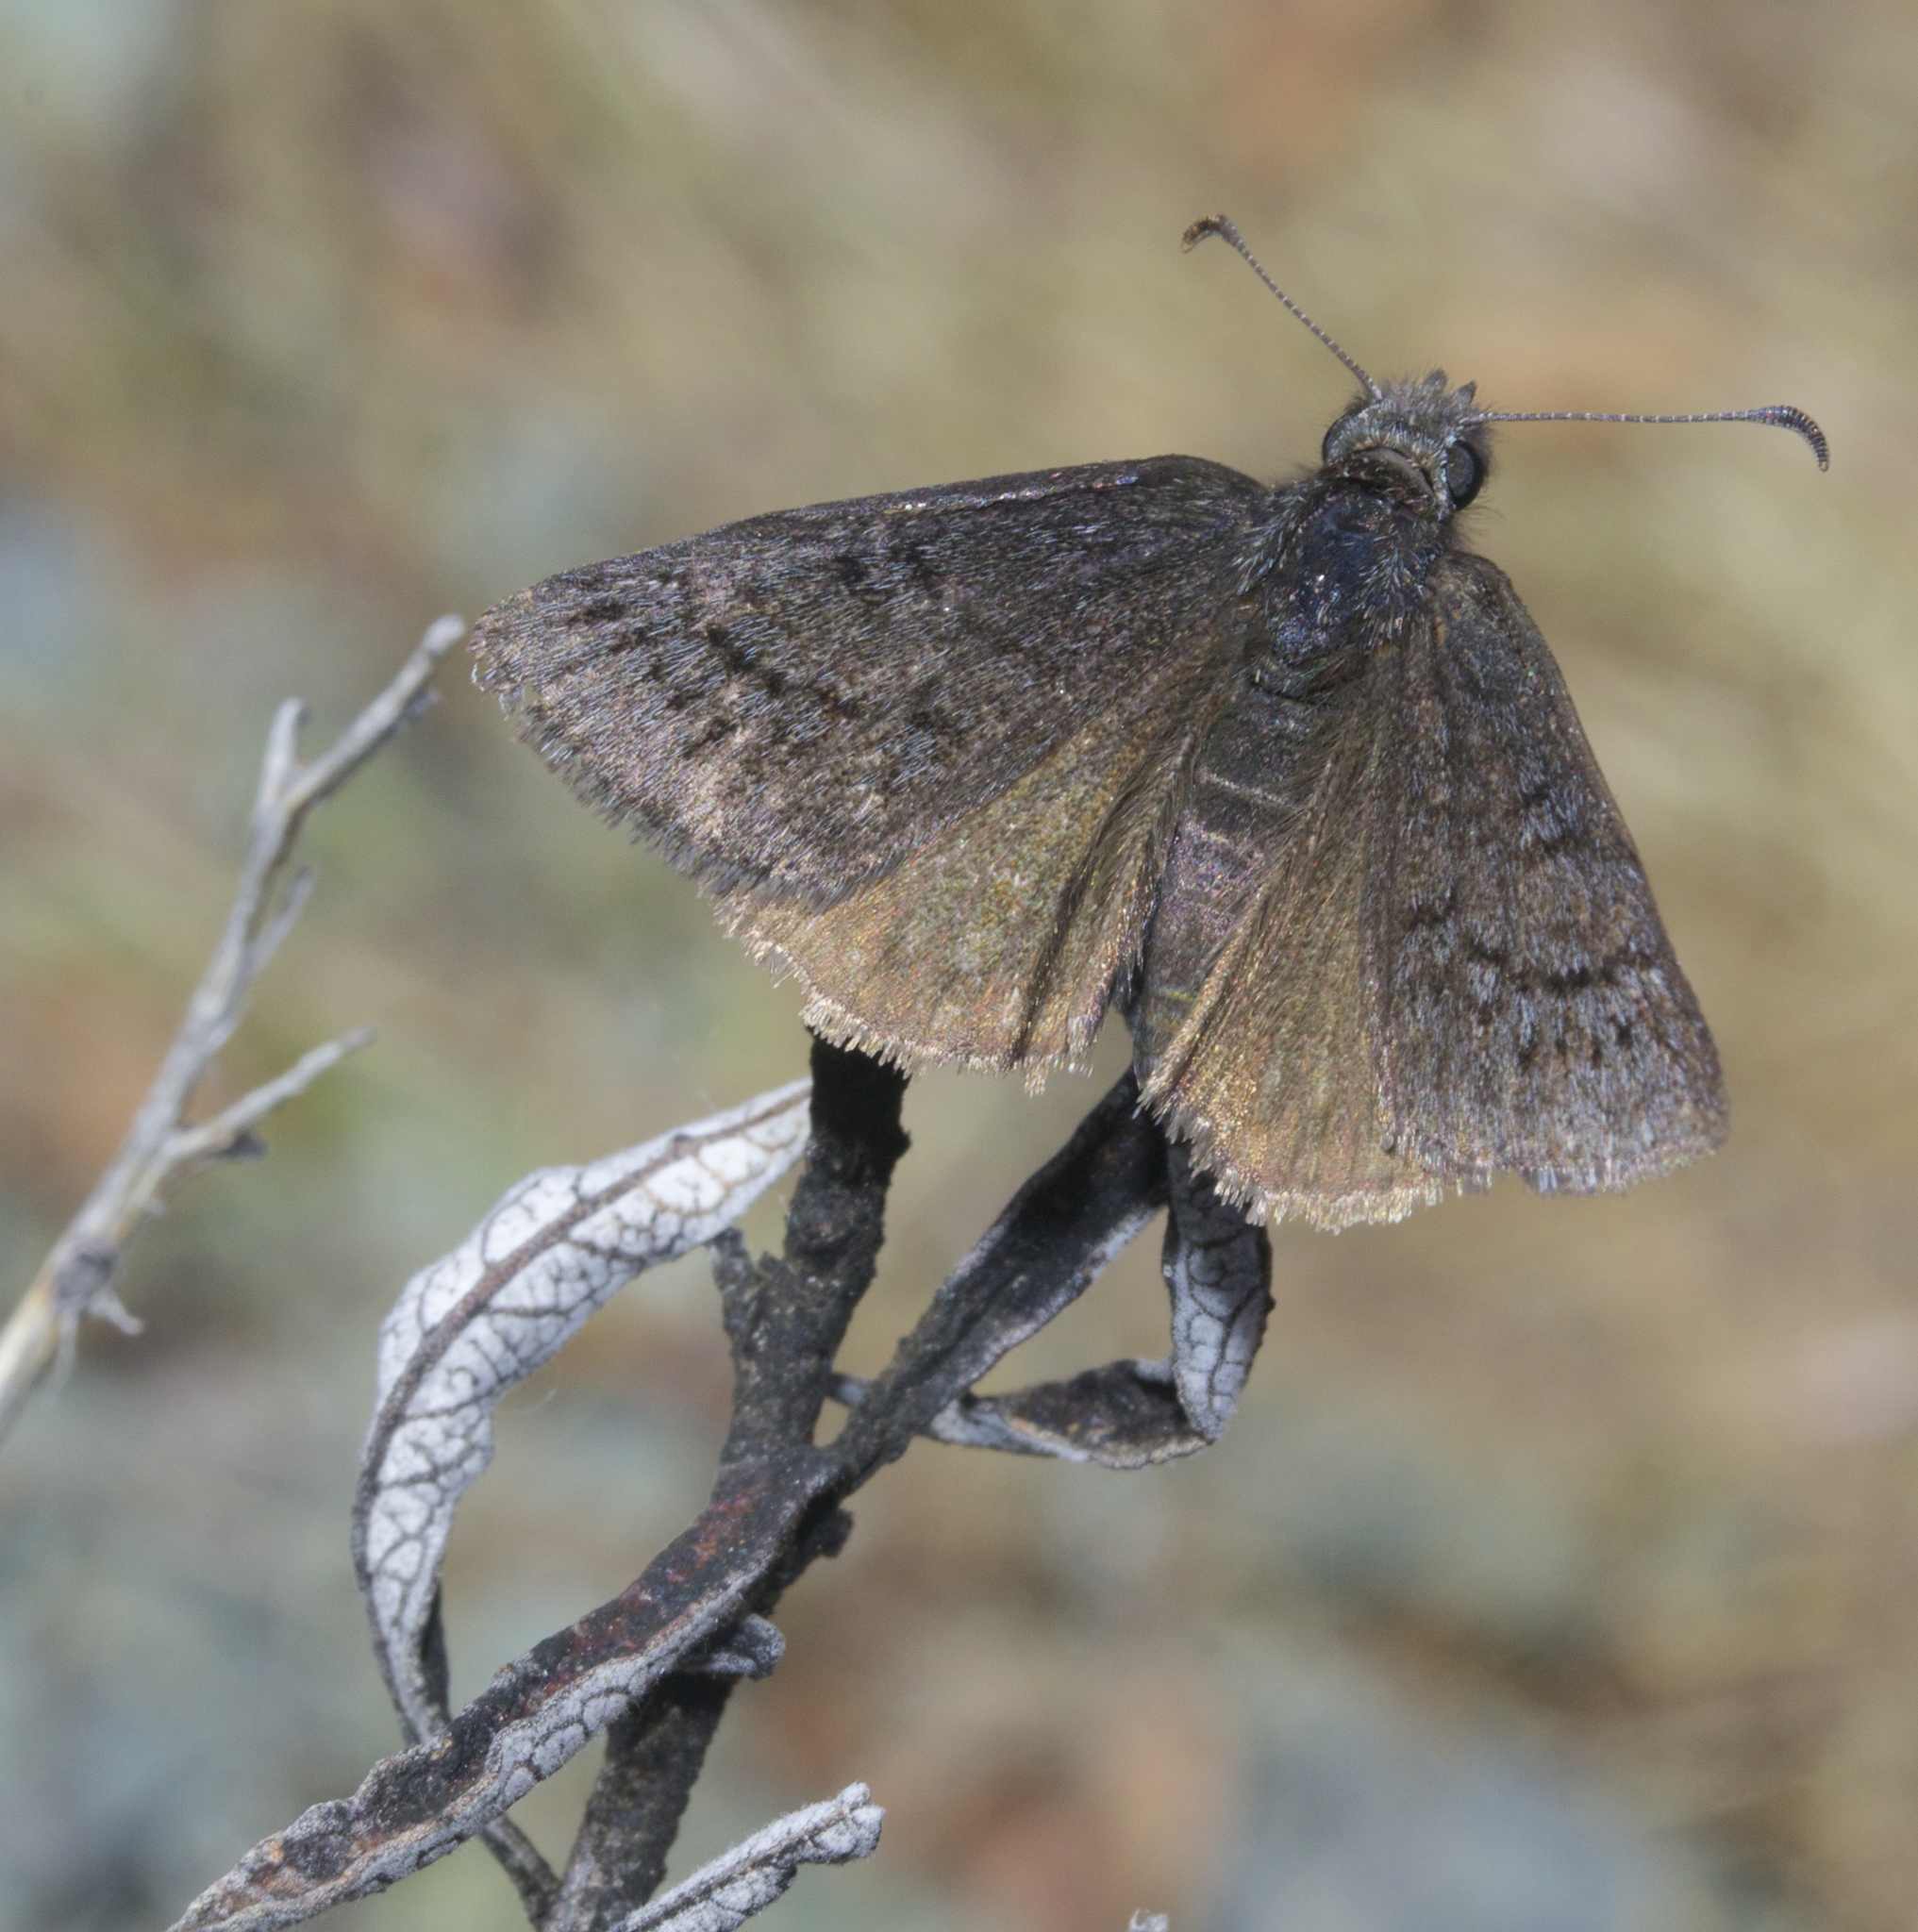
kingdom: Animalia
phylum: Arthropoda
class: Insecta
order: Lepidoptera
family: Hesperiidae
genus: Erynnis
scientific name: Erynnis brizo
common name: Sleepy duskywing
